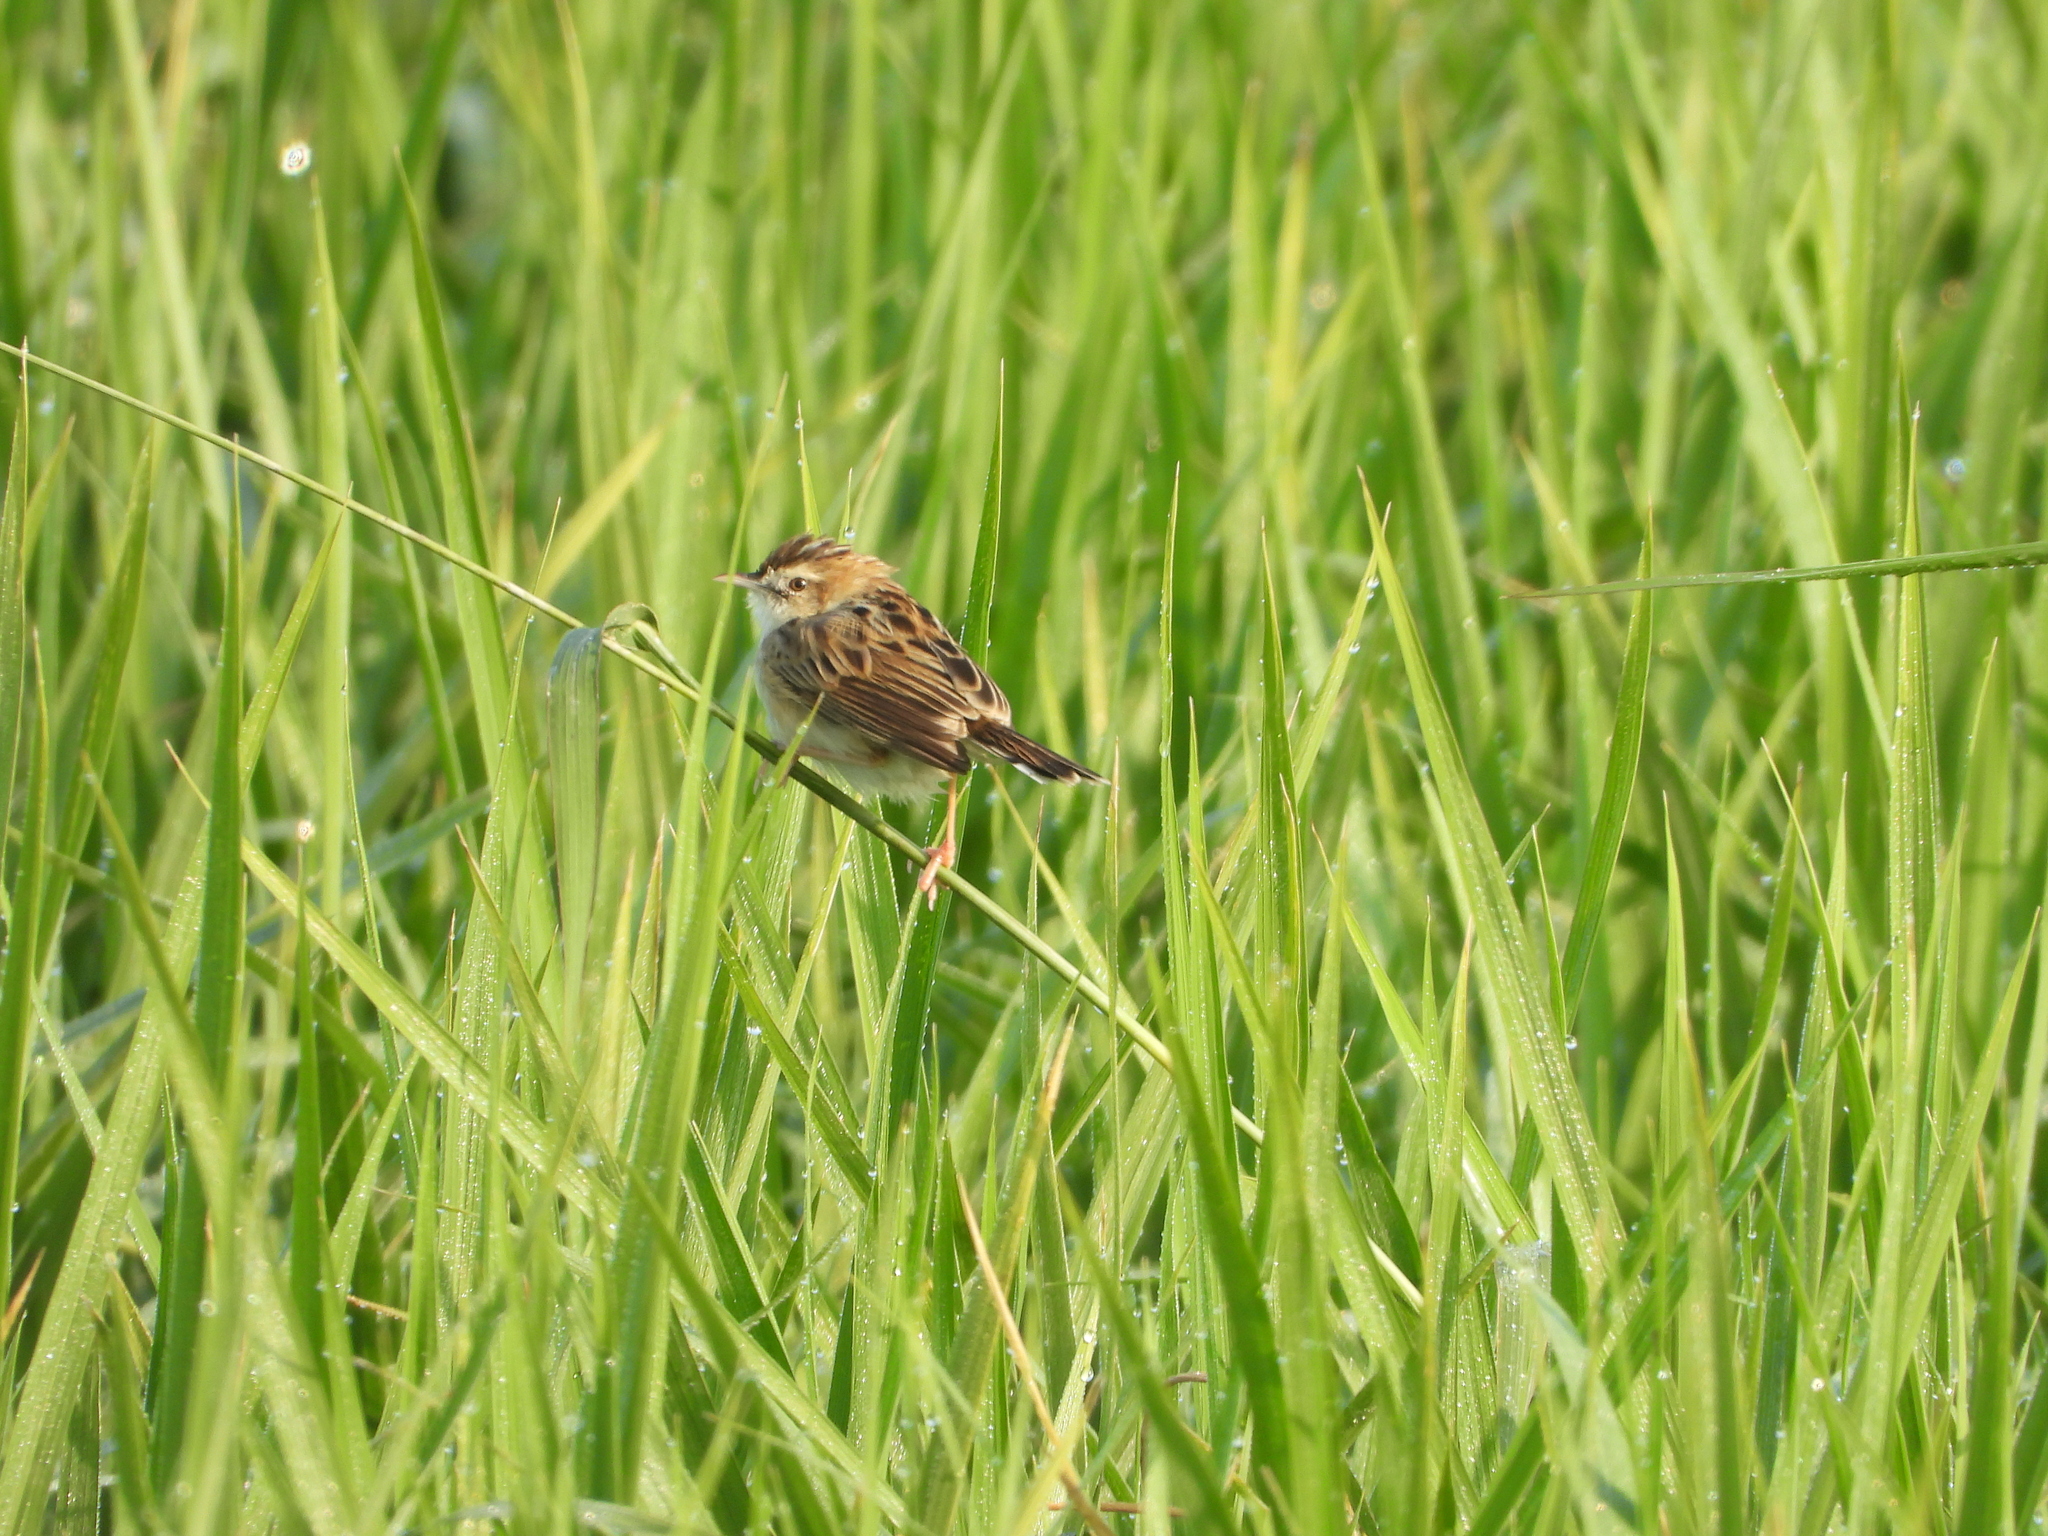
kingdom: Animalia
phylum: Chordata
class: Aves
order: Passeriformes
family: Cisticolidae
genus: Cisticola
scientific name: Cisticola juncidis
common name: Zitting cisticola
